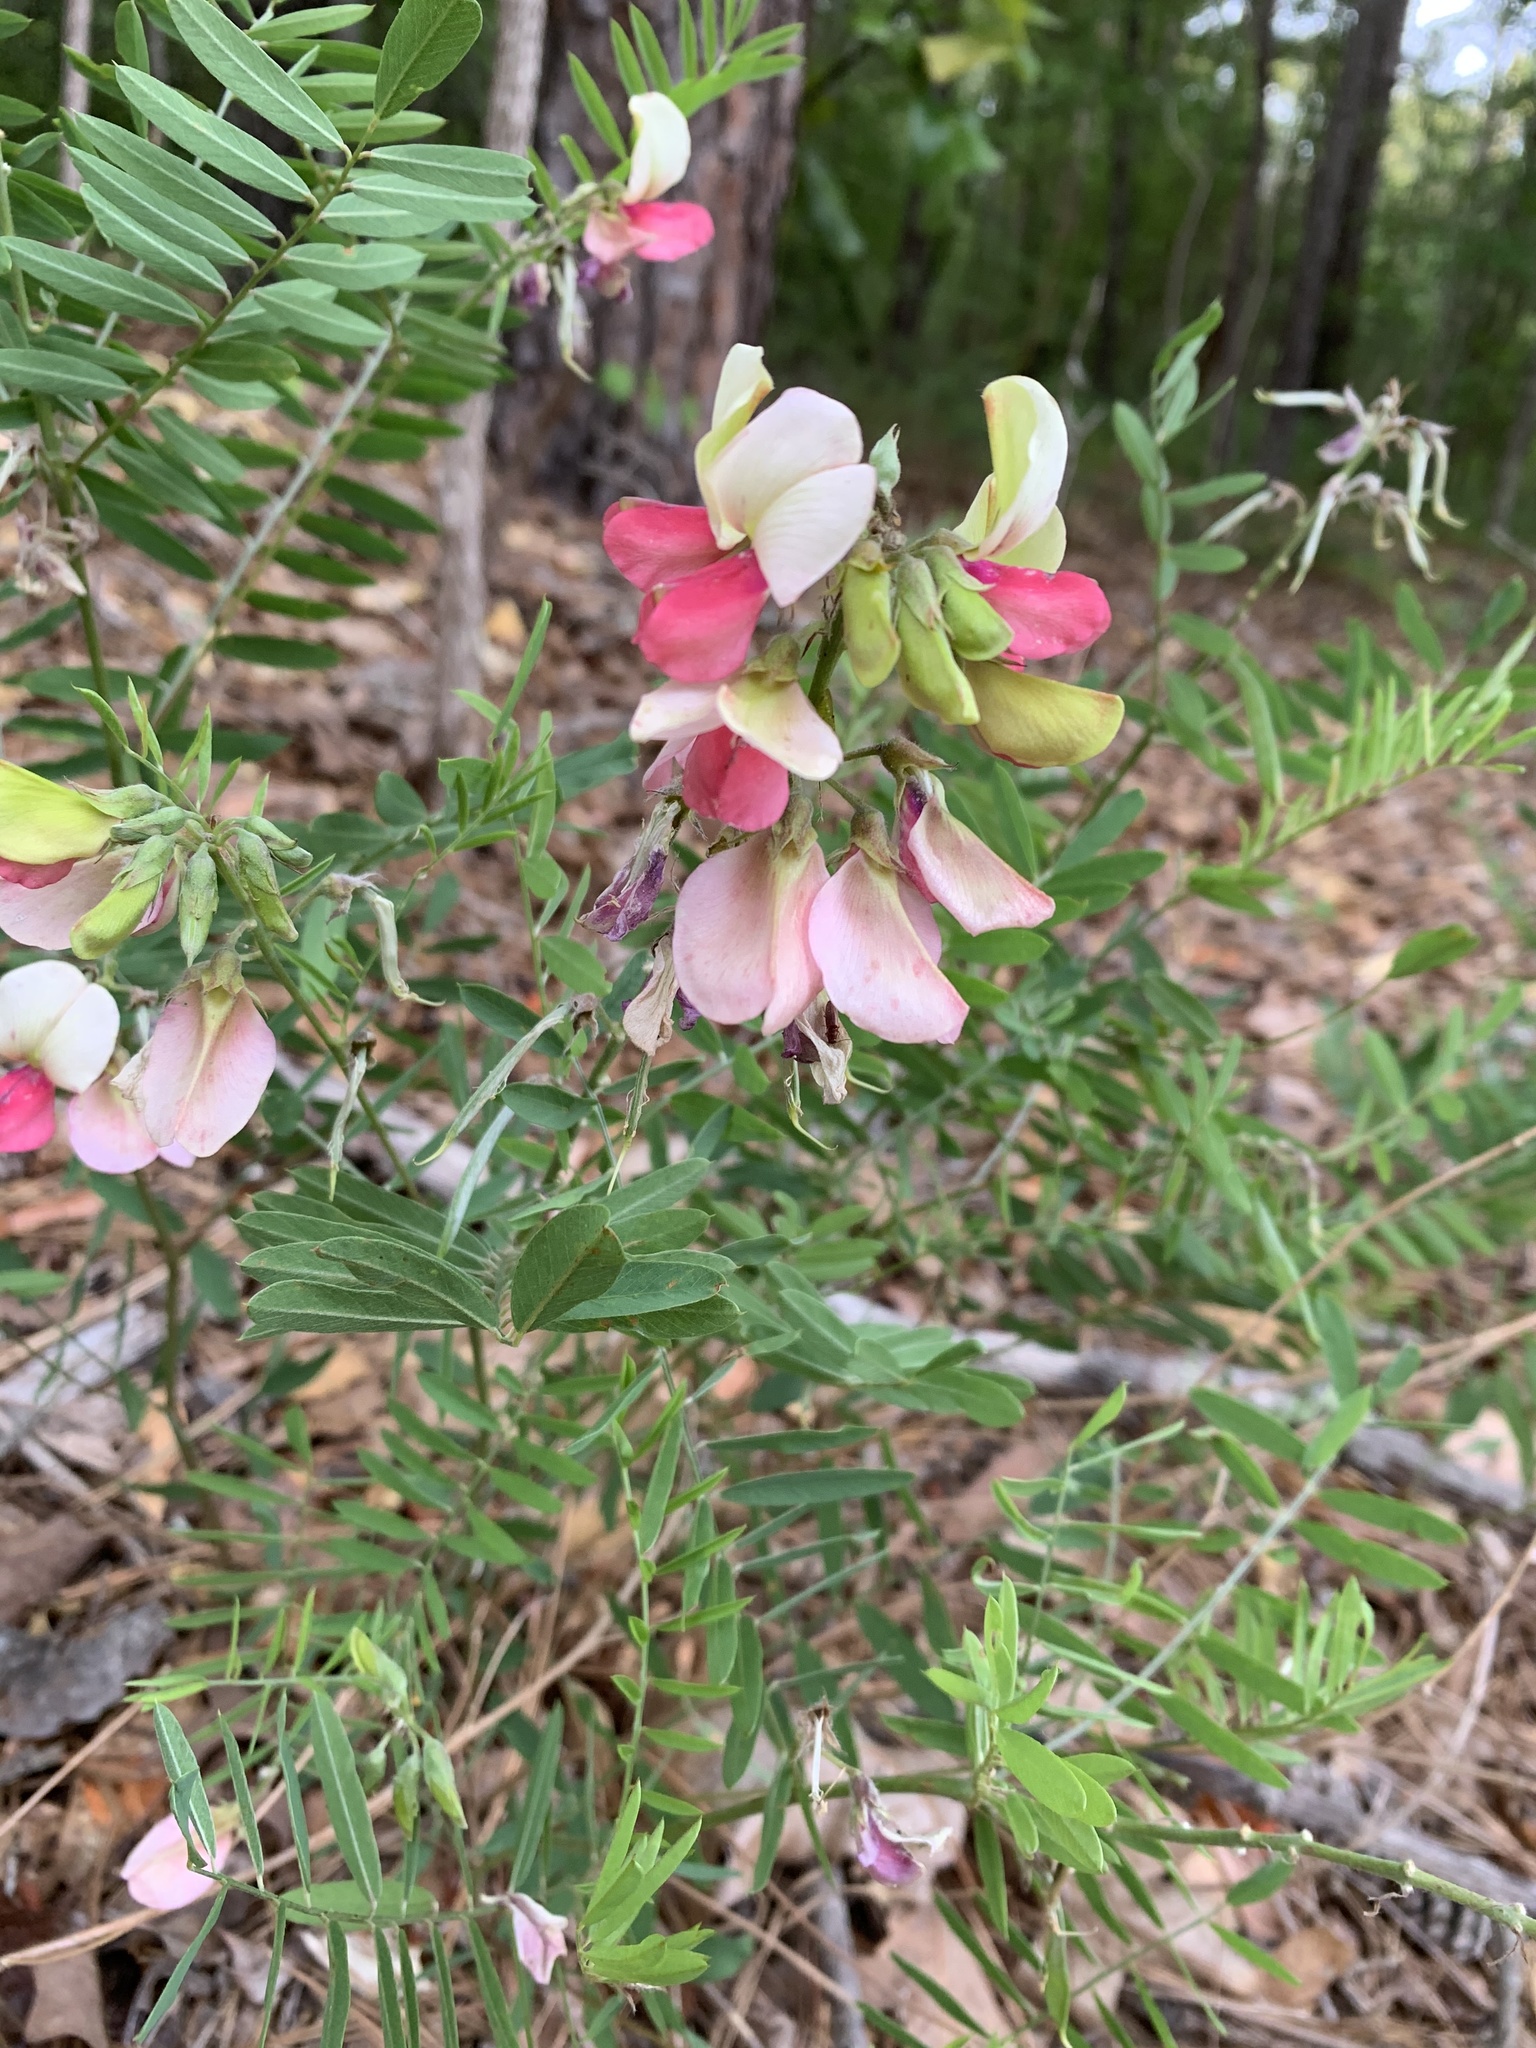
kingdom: Plantae
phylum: Tracheophyta
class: Magnoliopsida
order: Fabales
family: Fabaceae
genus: Tephrosia
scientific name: Tephrosia virginiana
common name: Rabbit-pea
